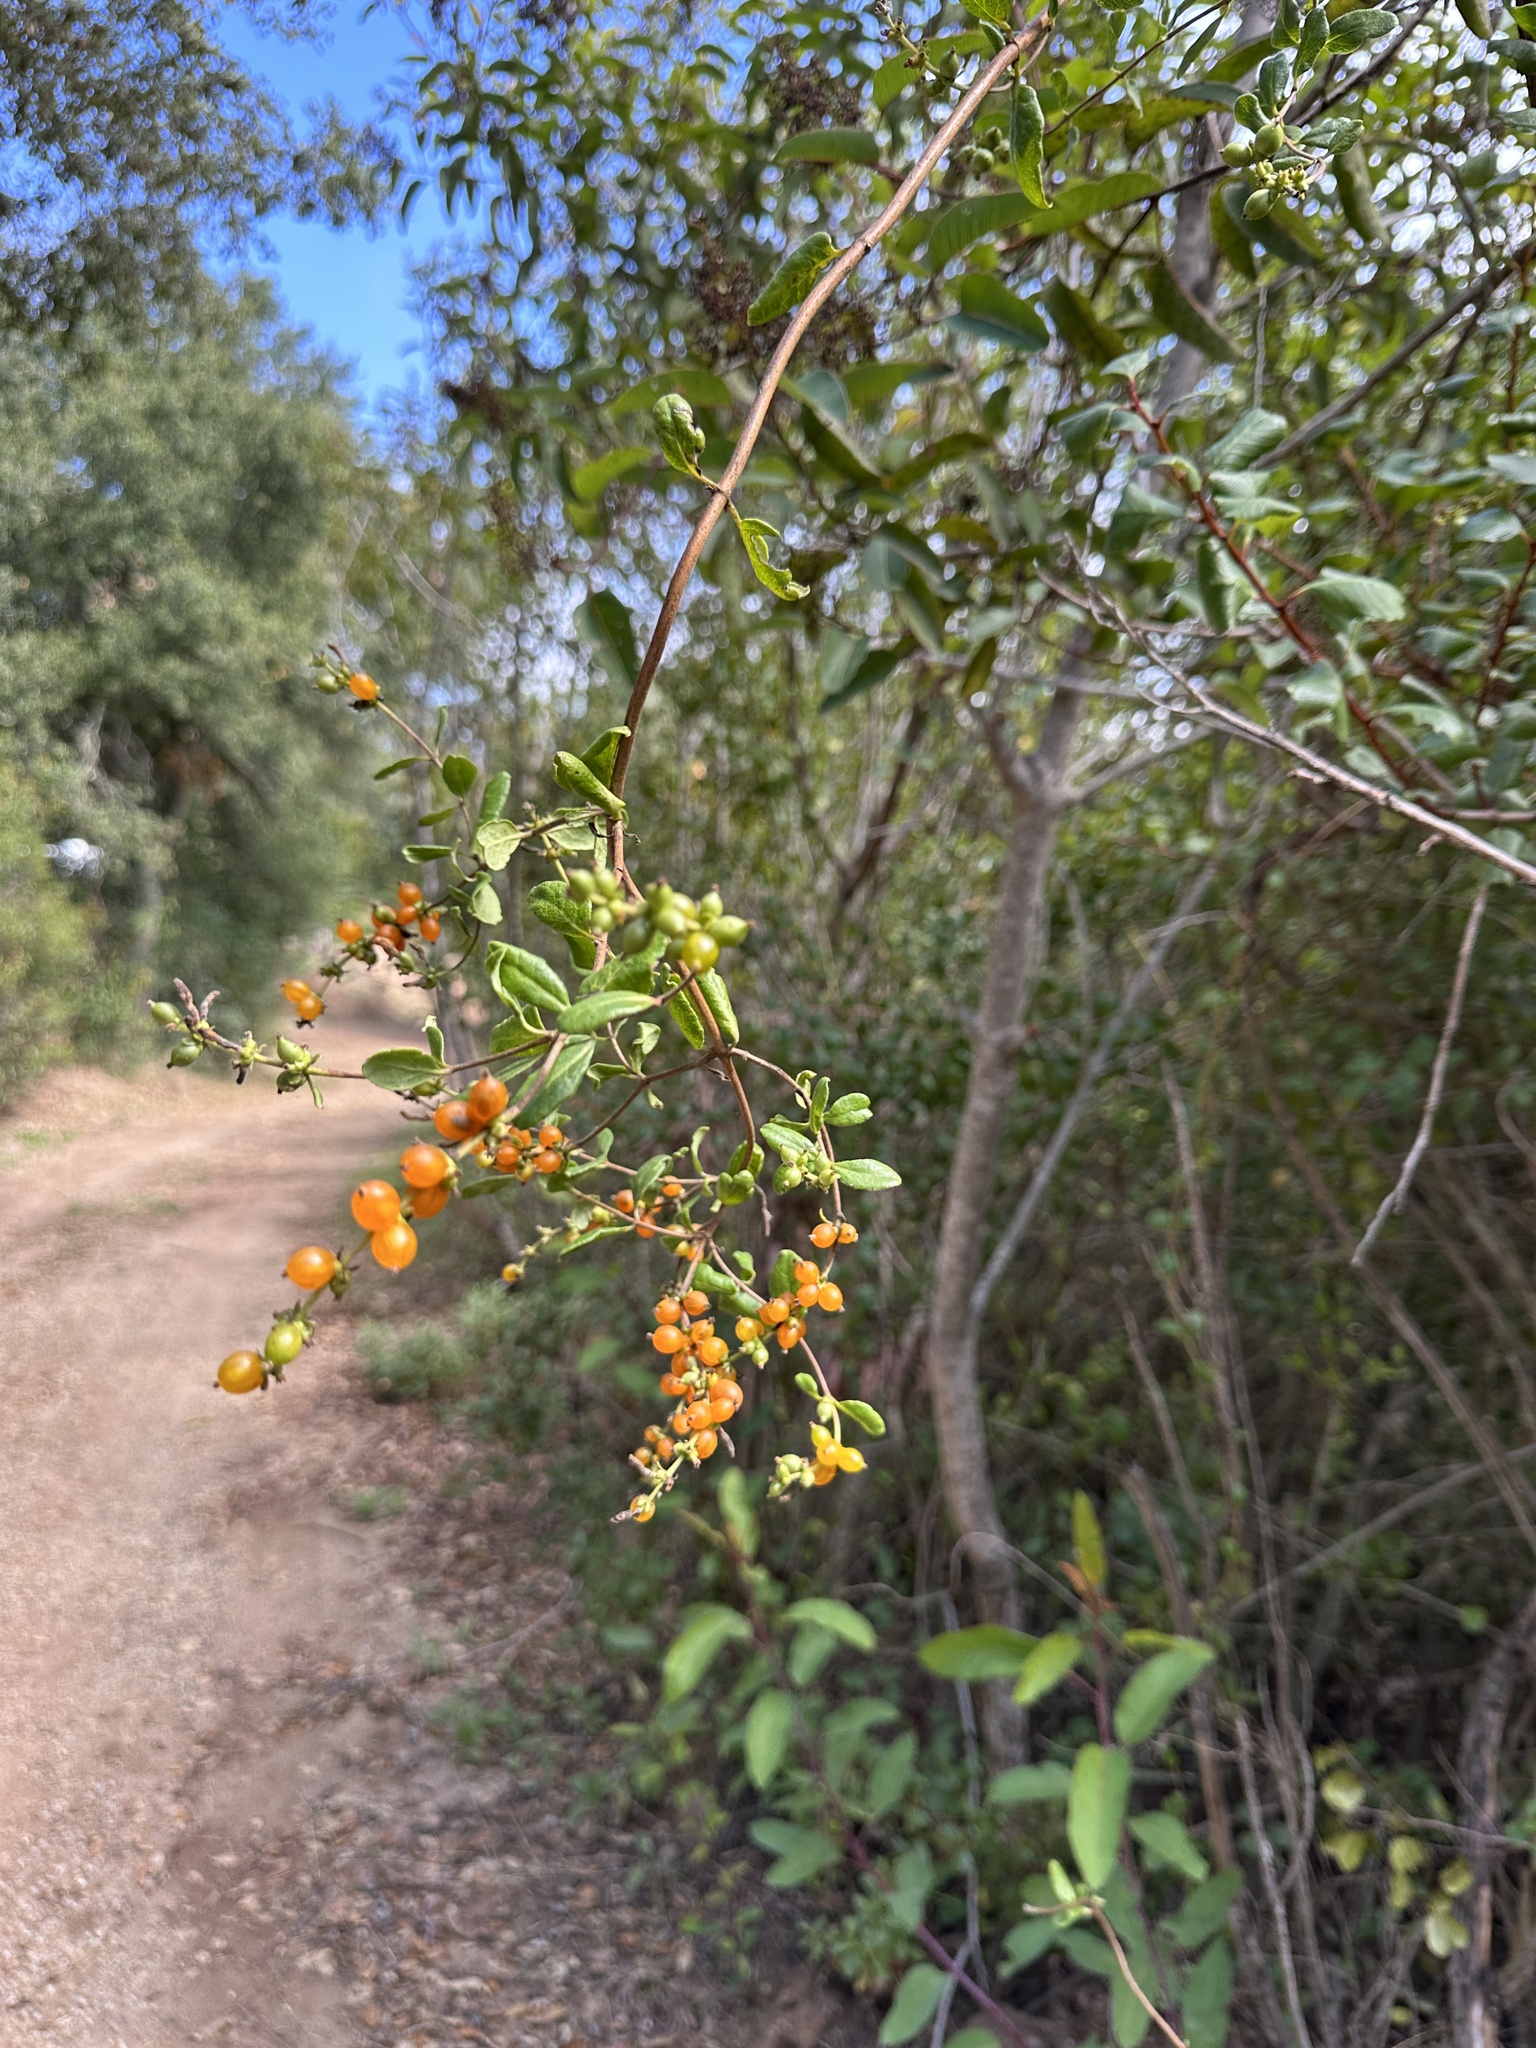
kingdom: Plantae
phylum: Tracheophyta
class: Magnoliopsida
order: Dipsacales
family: Caprifoliaceae
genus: Lonicera
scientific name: Lonicera subspicata
